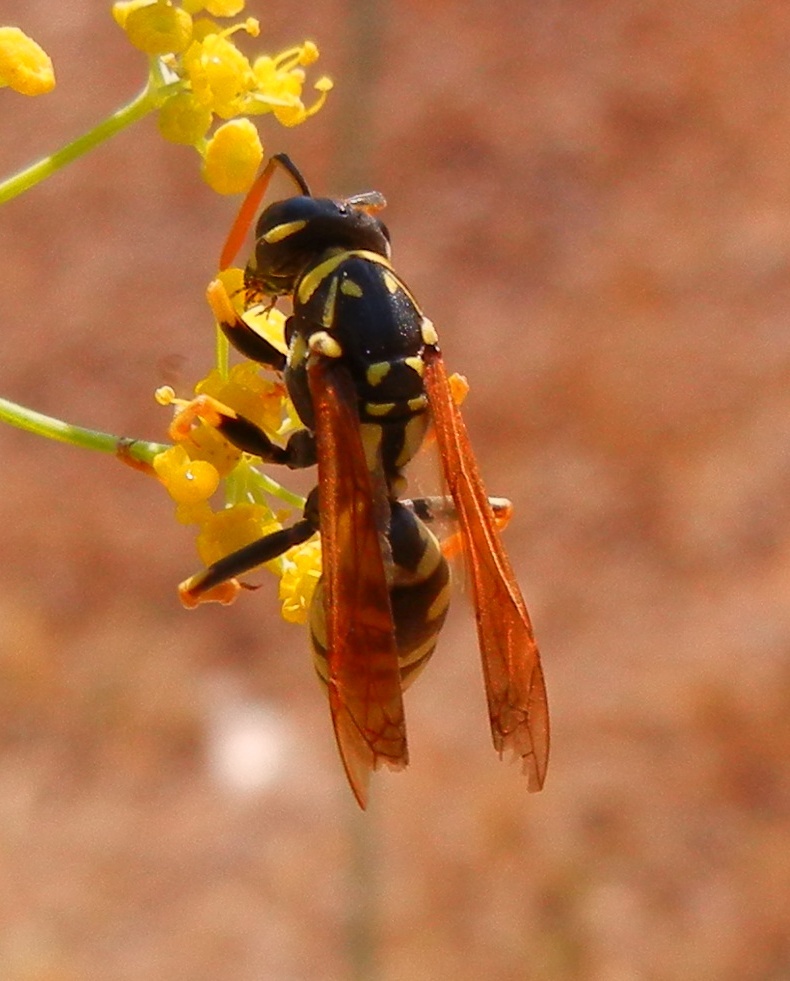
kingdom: Animalia
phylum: Arthropoda
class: Insecta
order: Hymenoptera
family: Eumenidae
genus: Polistes
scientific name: Polistes dominula
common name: Paper wasp
